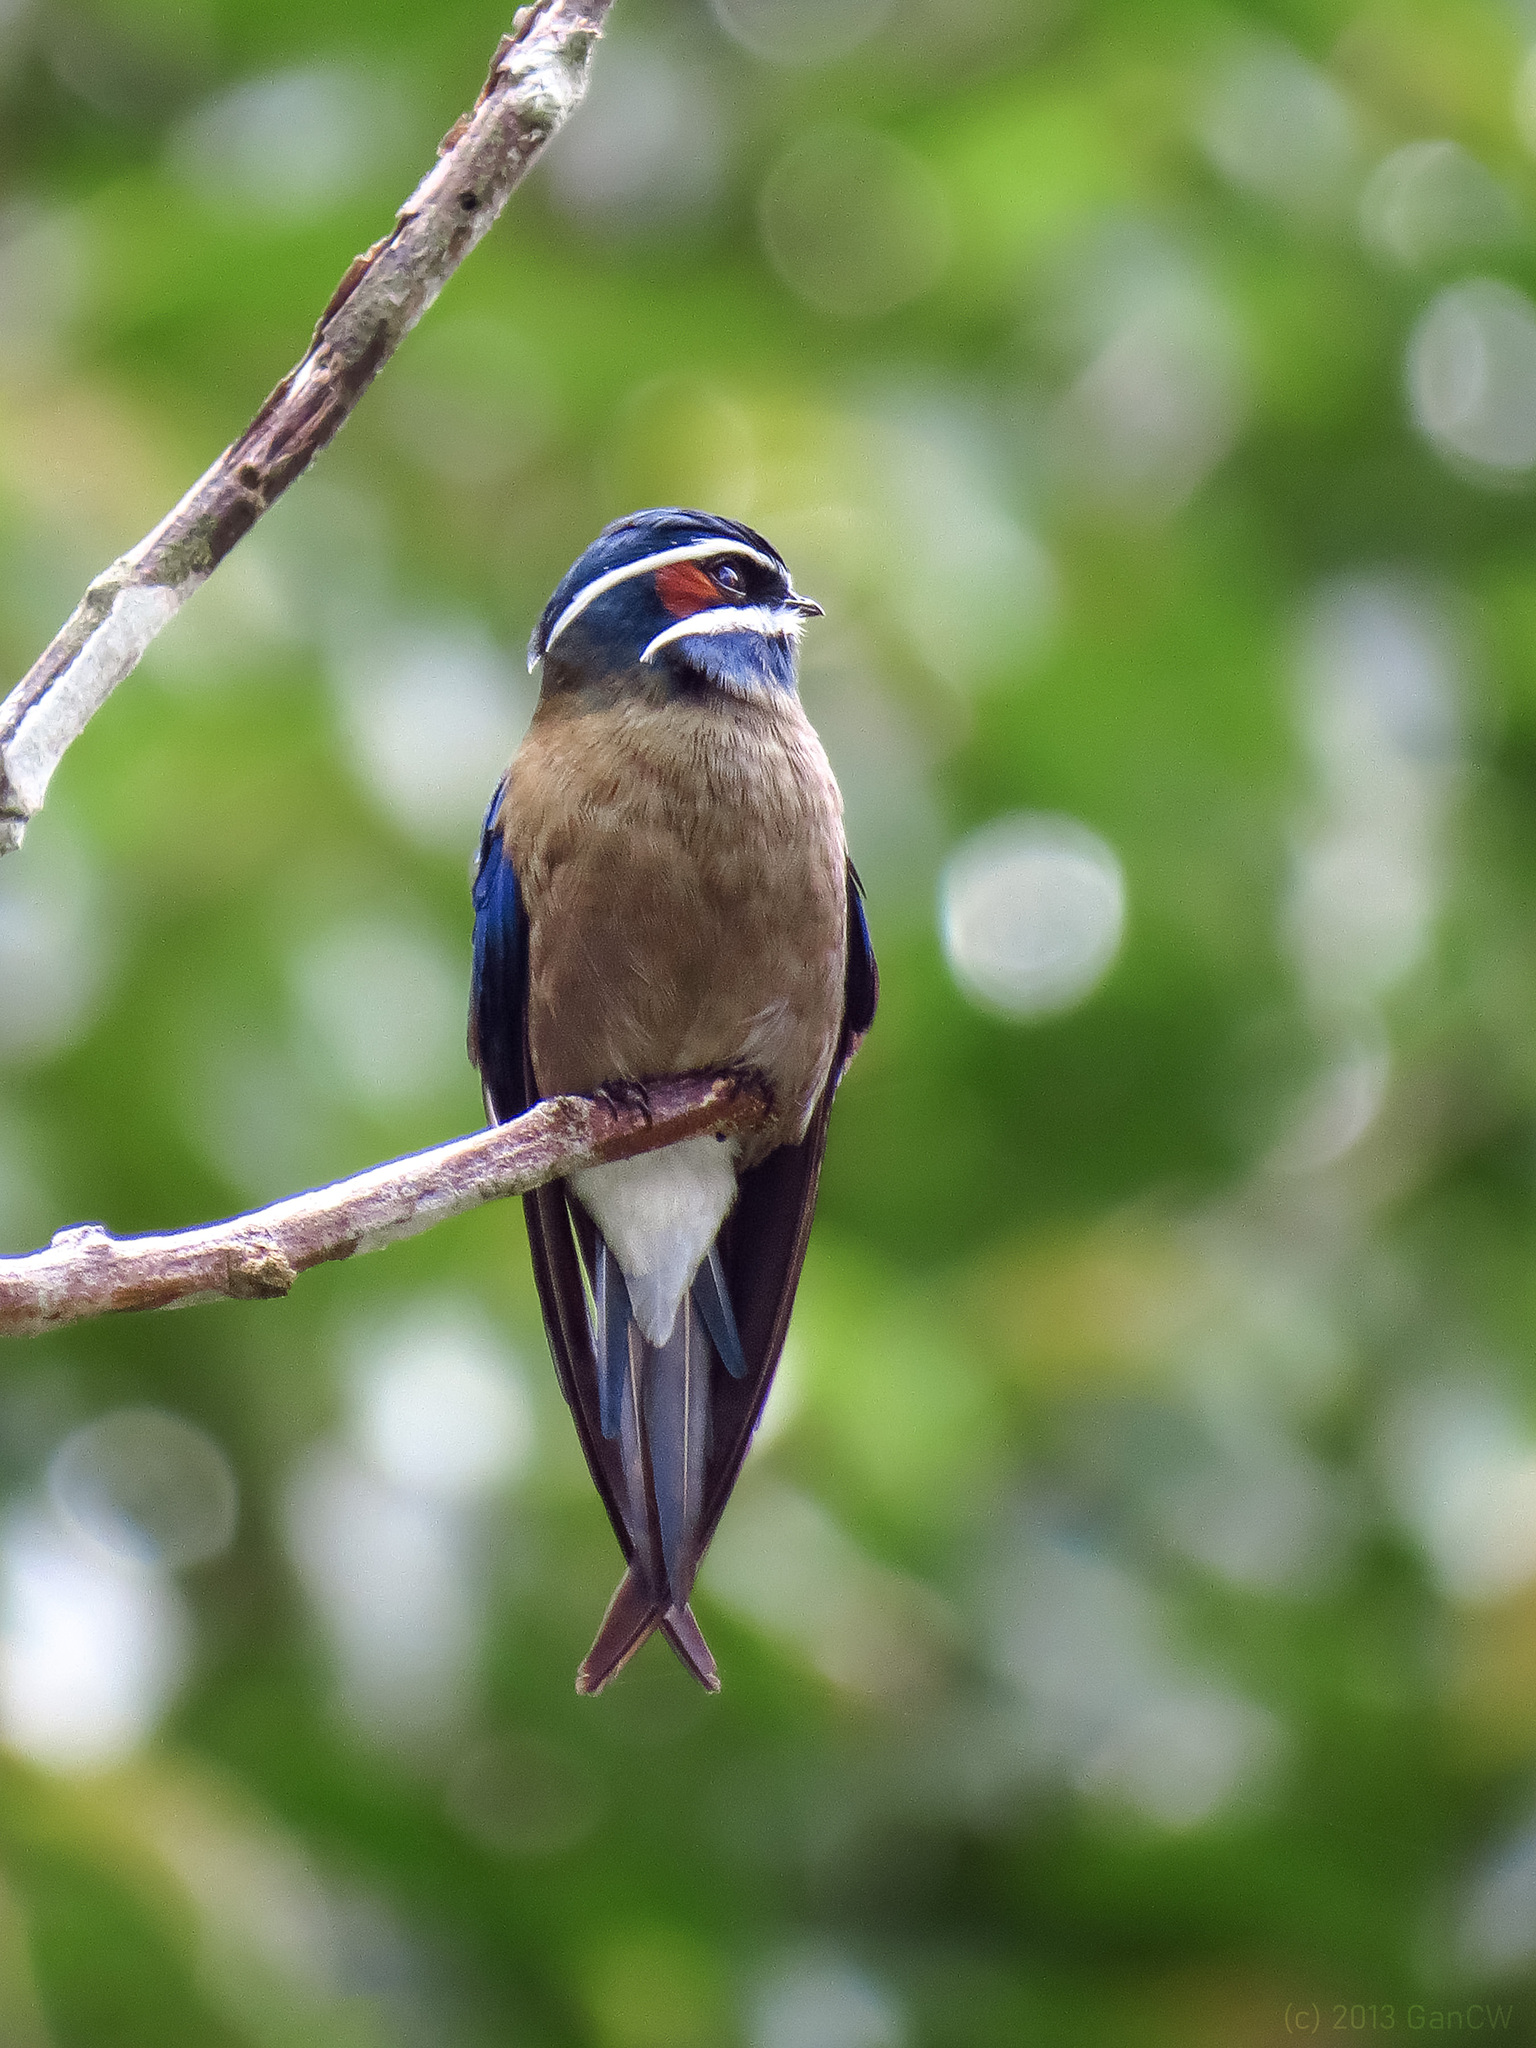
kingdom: Animalia
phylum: Chordata
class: Aves
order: Apodiformes
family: Hemiprocnidae
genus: Hemiprocne
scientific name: Hemiprocne comata
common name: Whiskered treeswift
